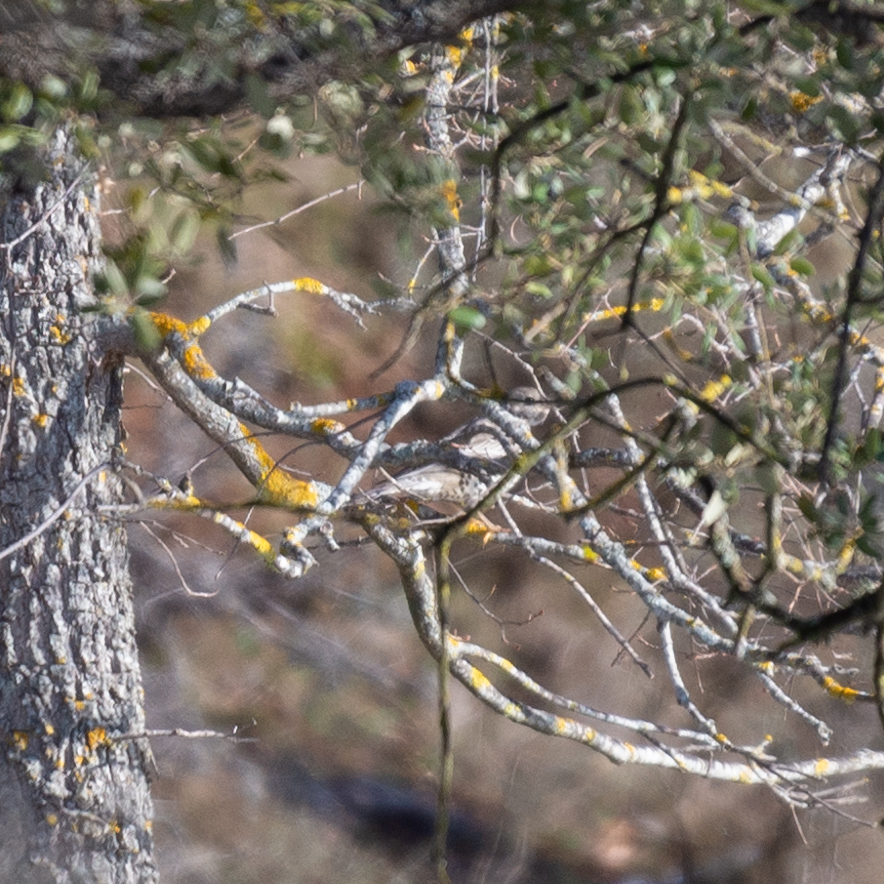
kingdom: Animalia
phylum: Chordata
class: Aves
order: Passeriformes
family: Turdidae
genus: Turdus
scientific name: Turdus viscivorus
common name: Mistle thrush
